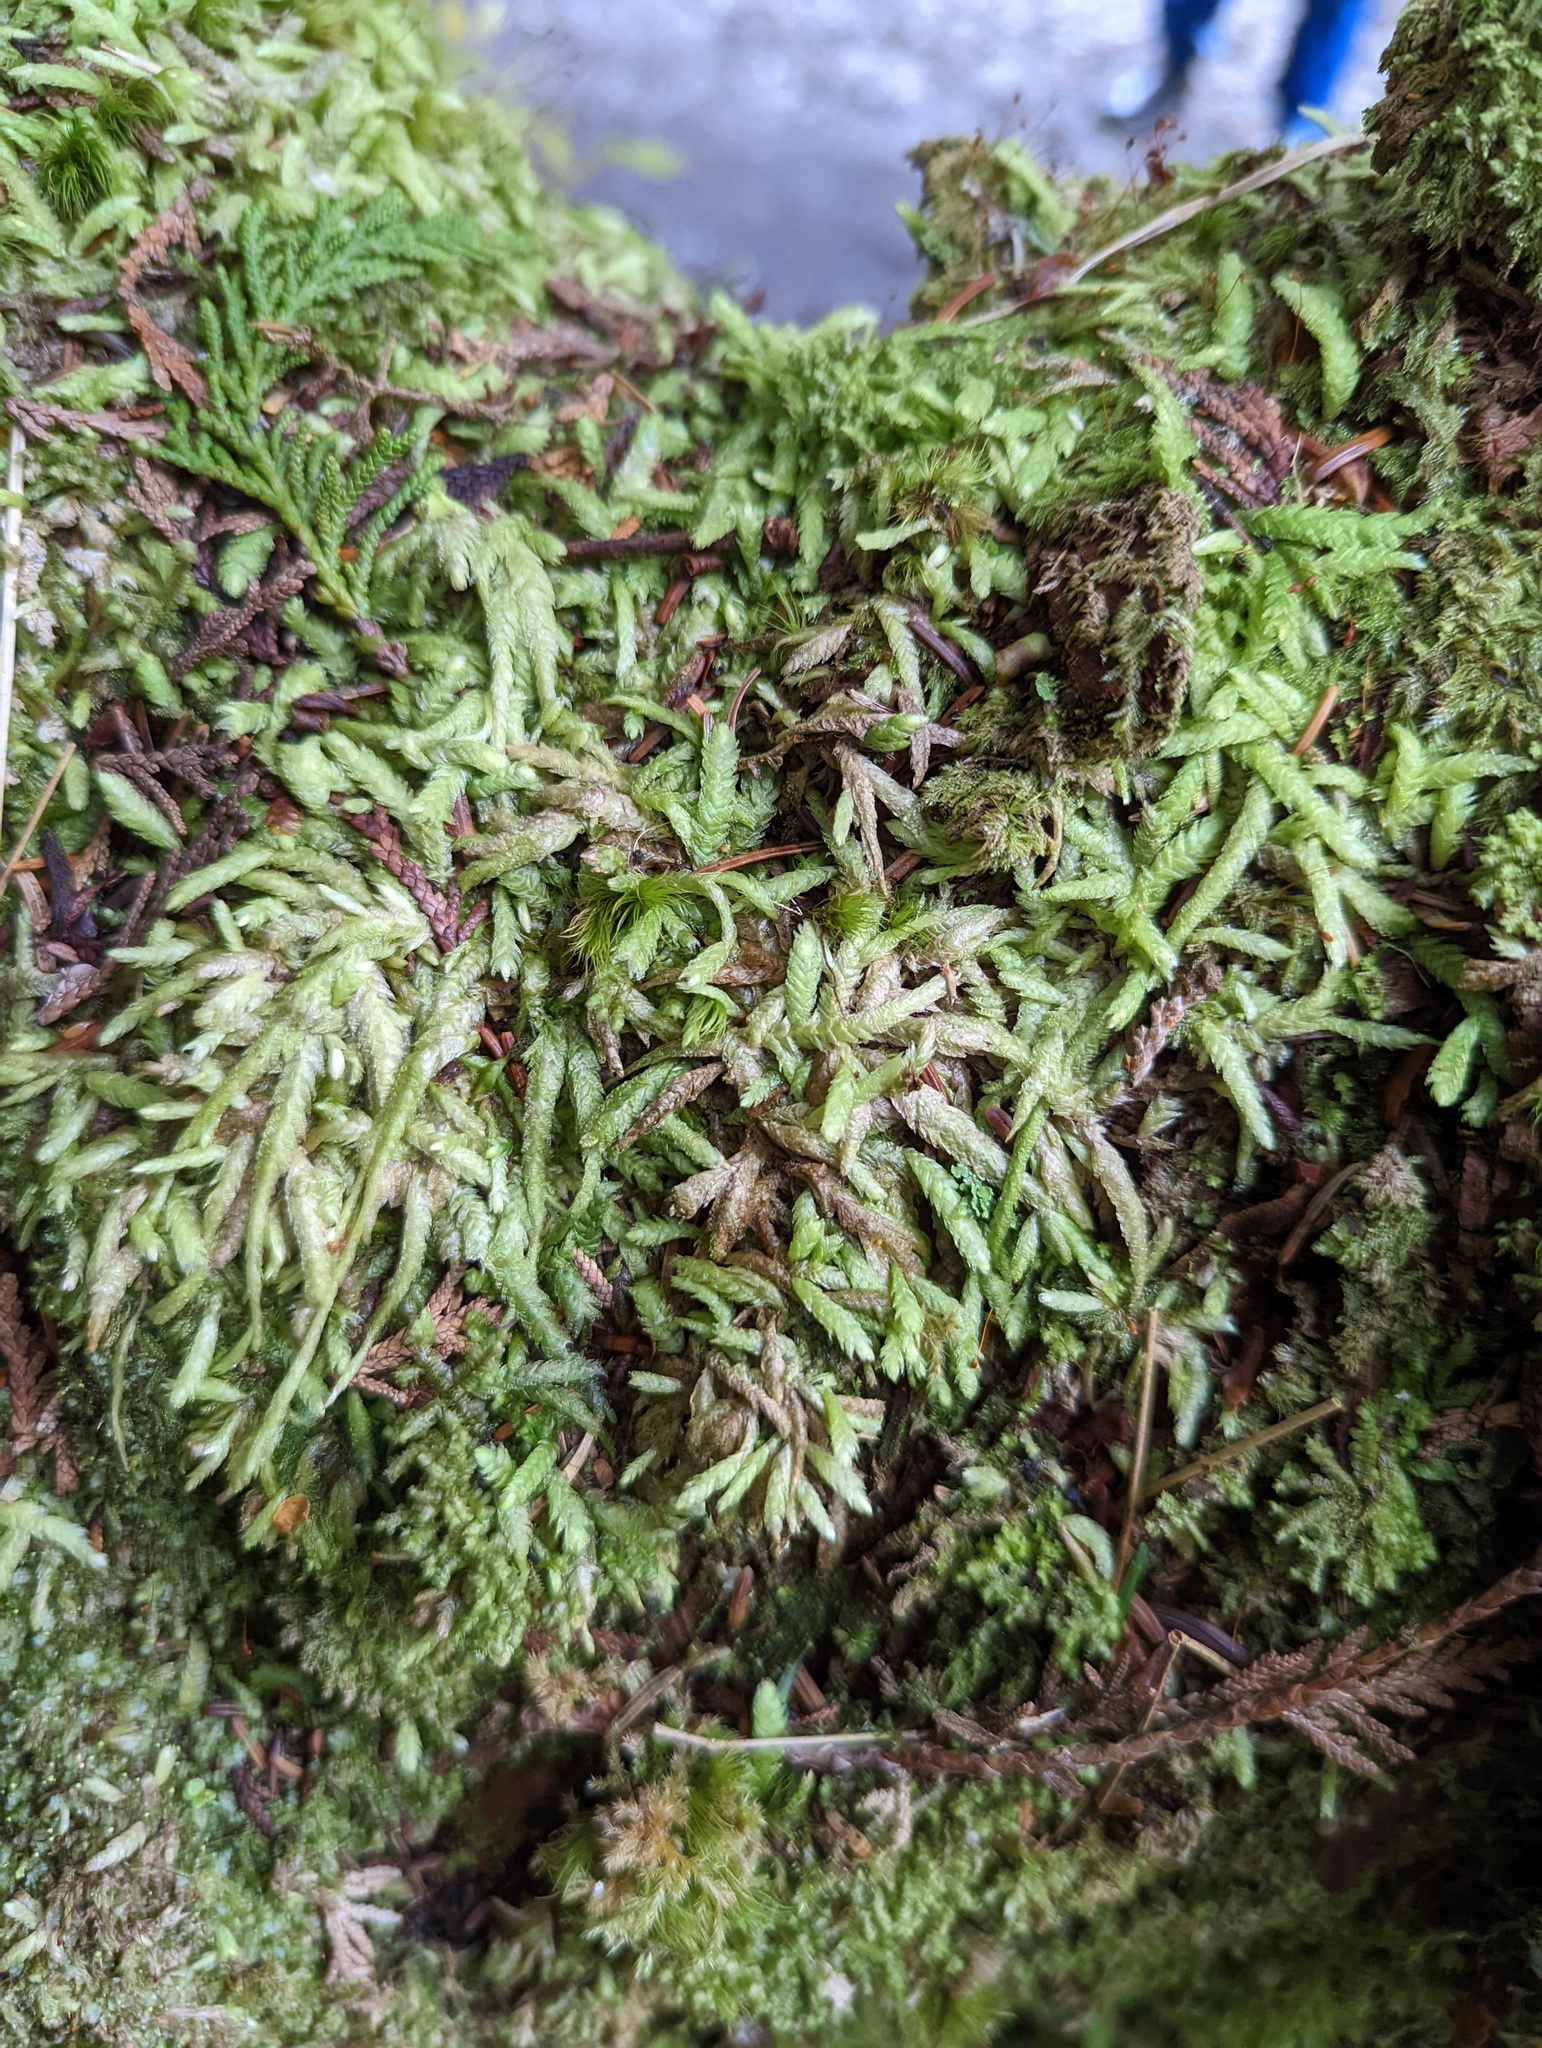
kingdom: Plantae
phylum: Bryophyta
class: Bryopsida
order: Hypnales
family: Plagiotheciaceae
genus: Plagiothecium
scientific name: Plagiothecium undulatum
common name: Waved silk-moss
